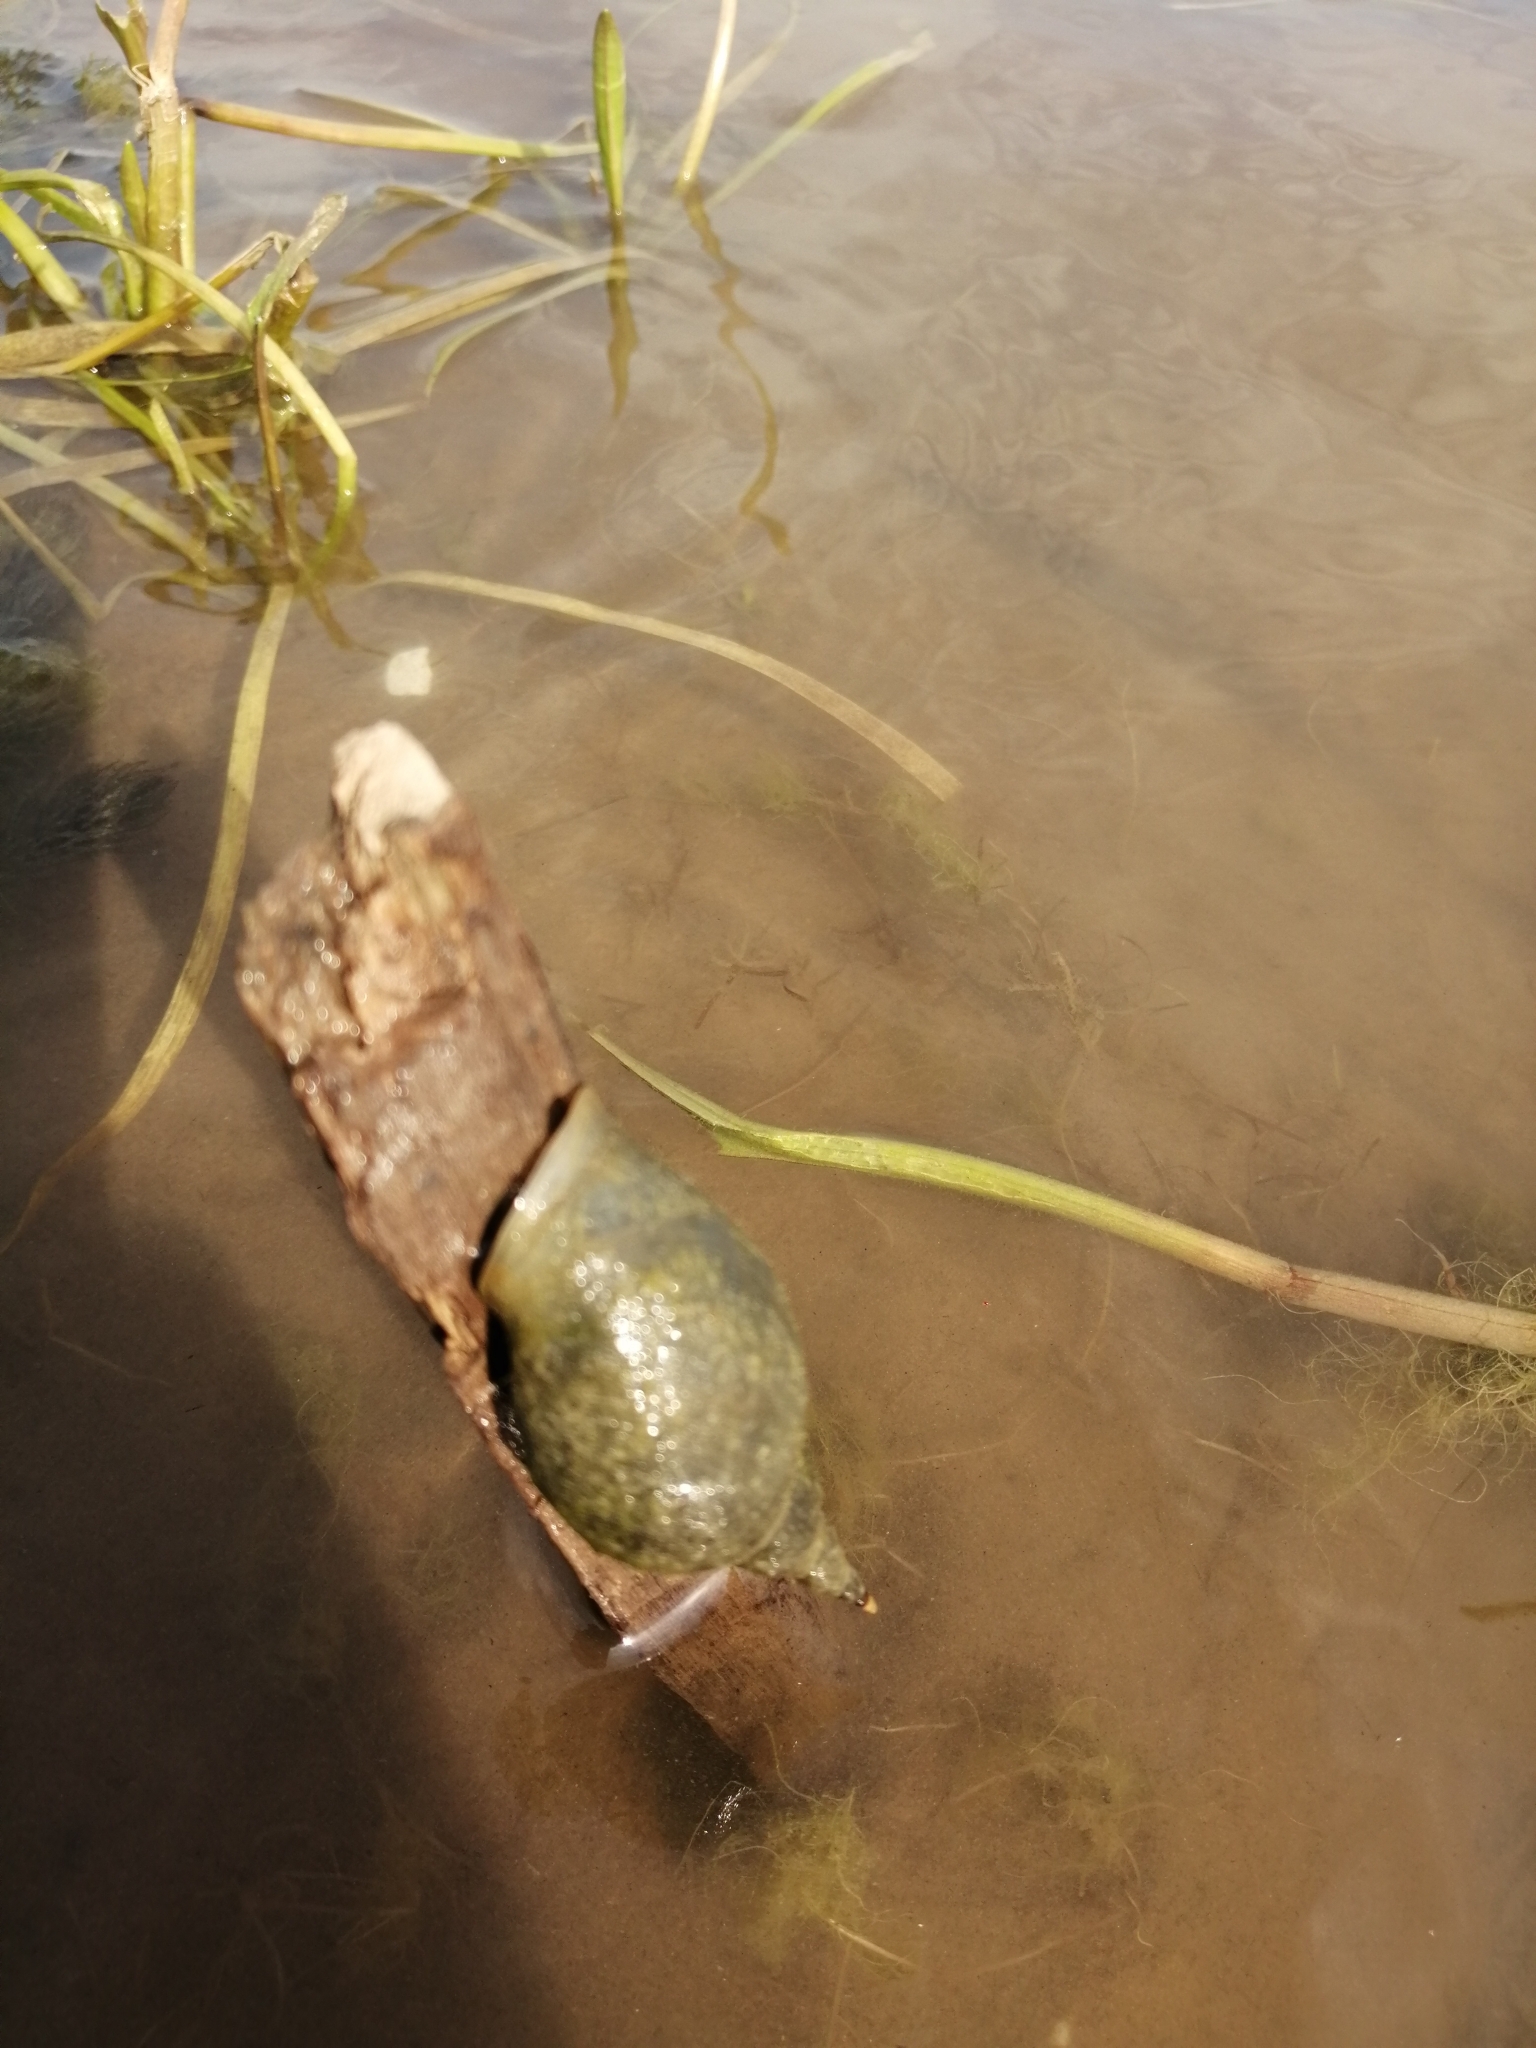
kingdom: Animalia
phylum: Mollusca
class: Gastropoda
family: Lymnaeidae
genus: Lymnaea
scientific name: Lymnaea stagnalis
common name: Great pond snail
